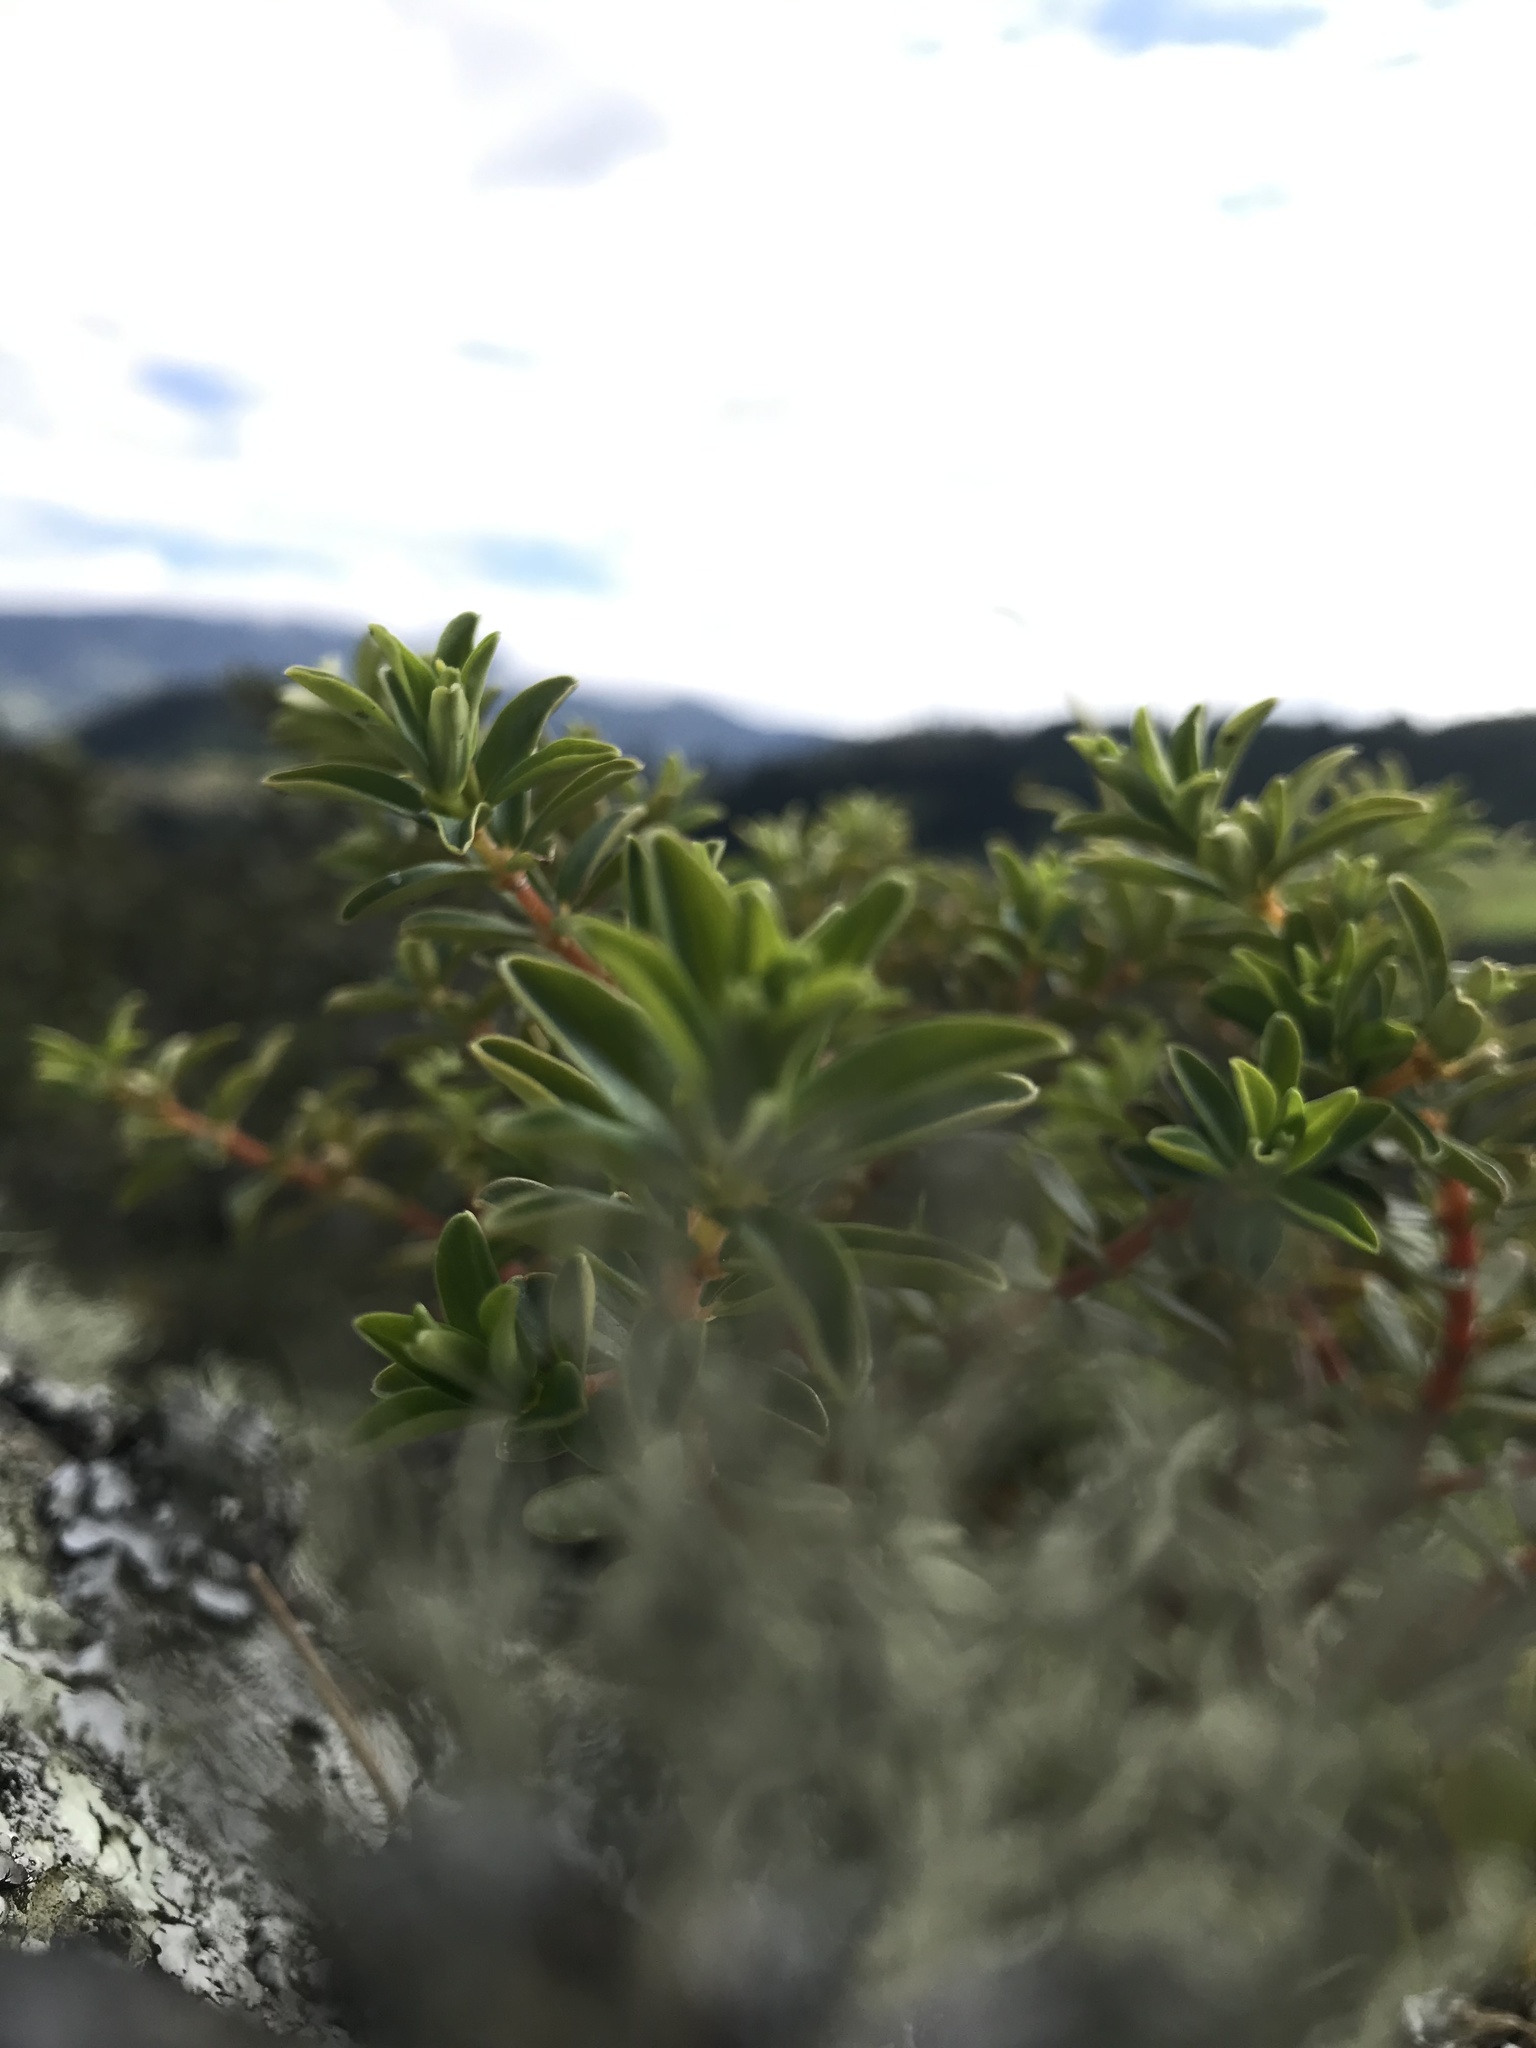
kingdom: Plantae
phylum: Tracheophyta
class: Magnoliopsida
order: Piperales
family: Piperaceae
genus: Peperomia
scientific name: Peperomia galioides
